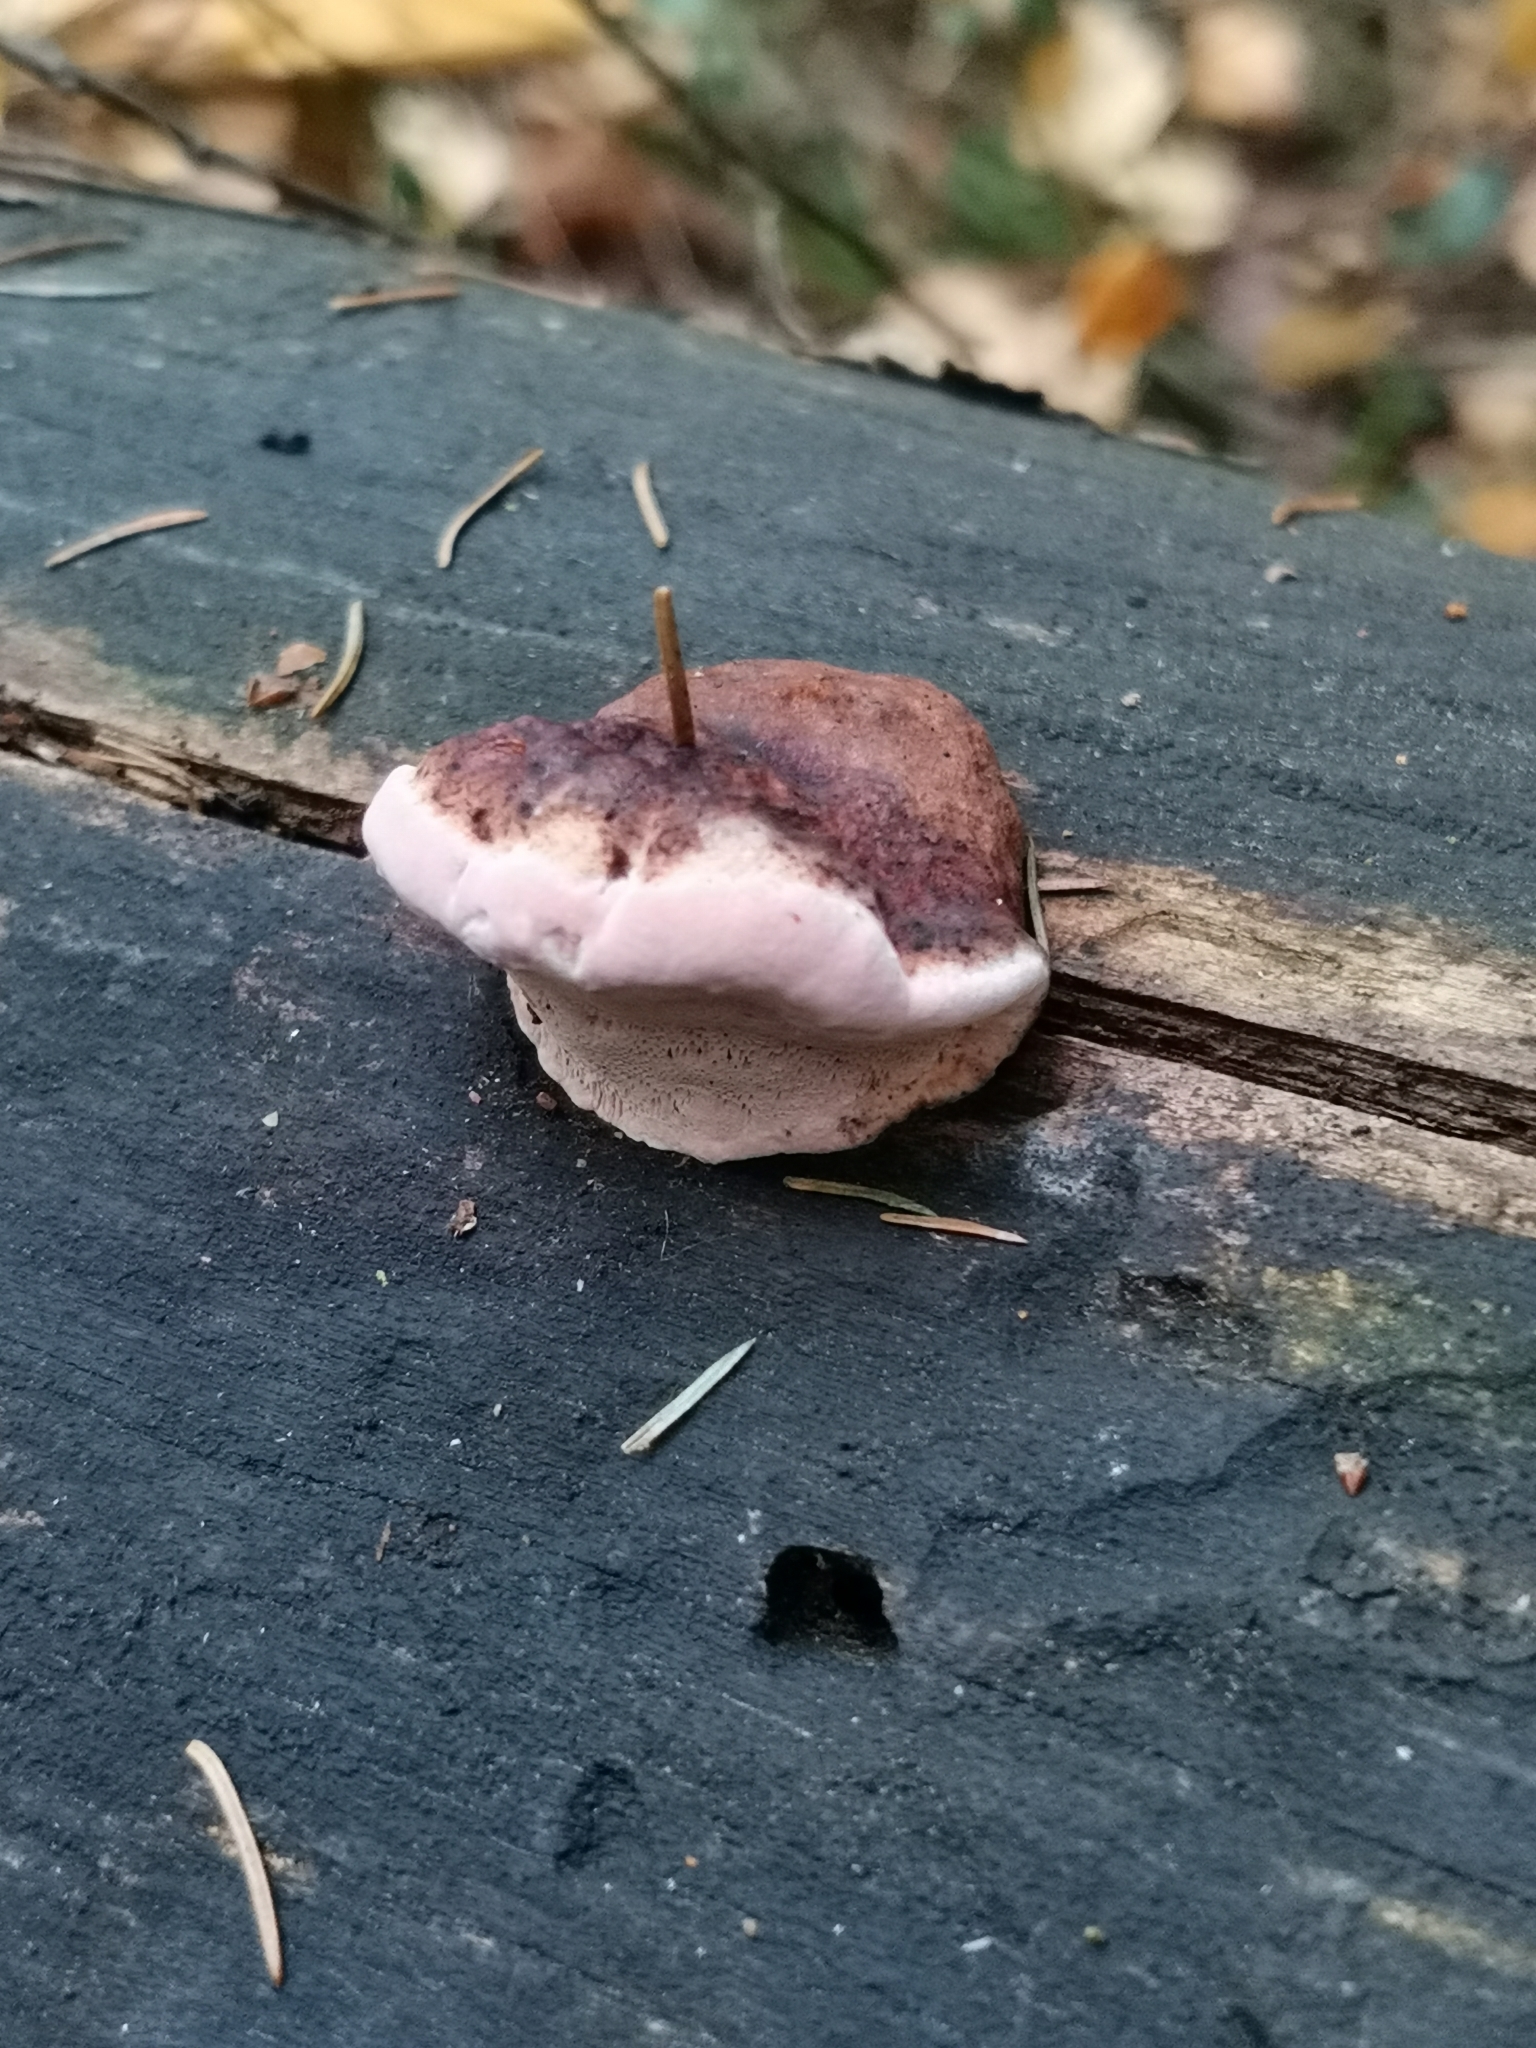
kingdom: Fungi
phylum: Basidiomycota
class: Agaricomycetes
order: Polyporales
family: Fomitopsidaceae
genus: Rhodofomes
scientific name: Rhodofomes roseus
